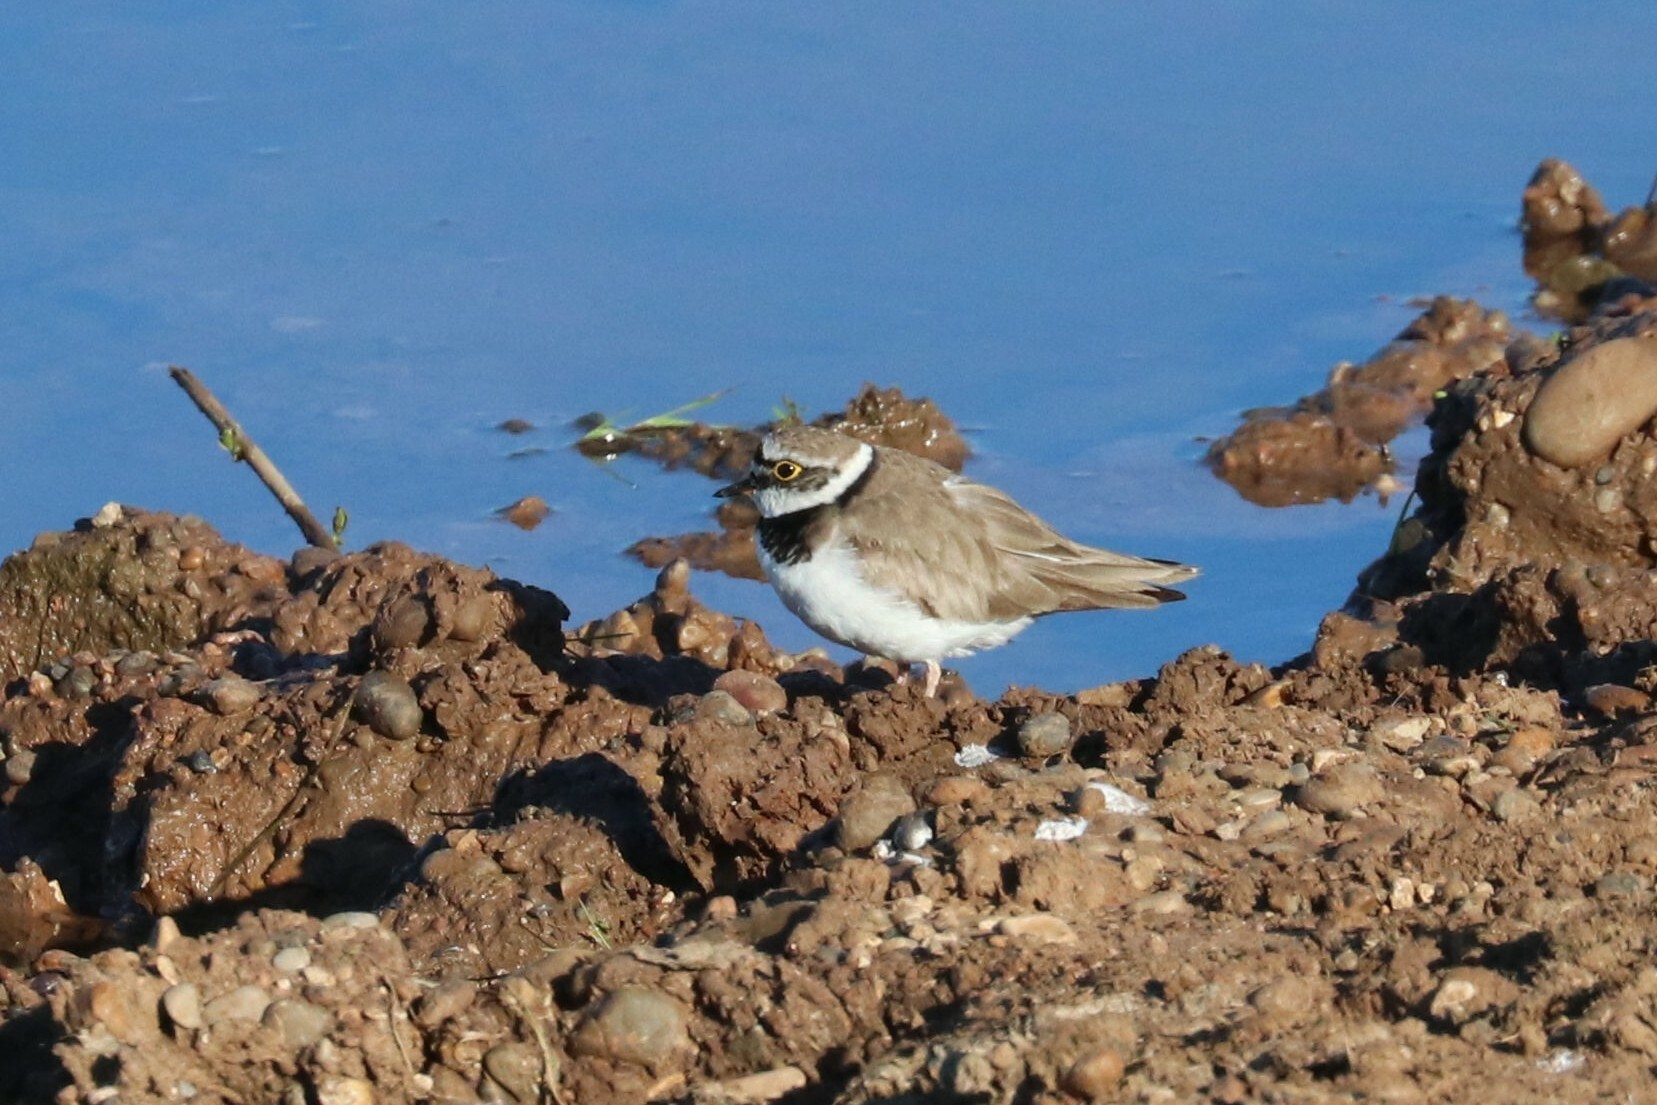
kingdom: Animalia
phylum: Chordata
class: Aves
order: Charadriiformes
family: Charadriidae
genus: Charadrius
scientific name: Charadrius dubius
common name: Little ringed plover
